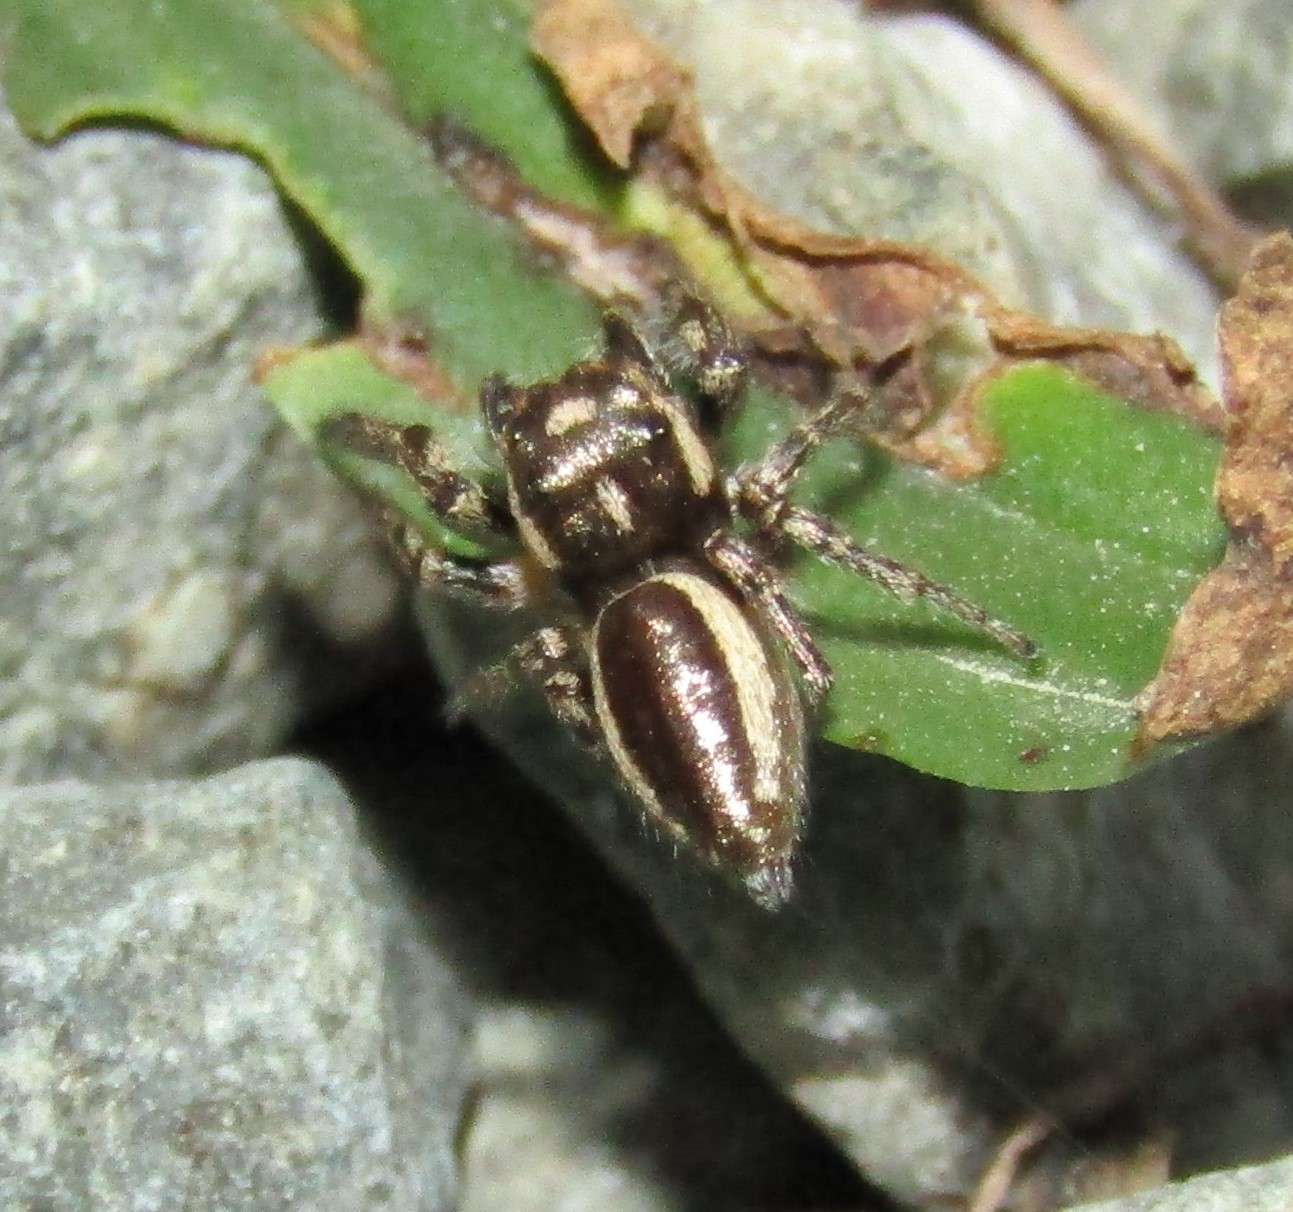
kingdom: Animalia
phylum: Arthropoda
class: Arachnida
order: Araneae
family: Salticidae
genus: Eris
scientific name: Eris militaris
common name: Bronze jumper
